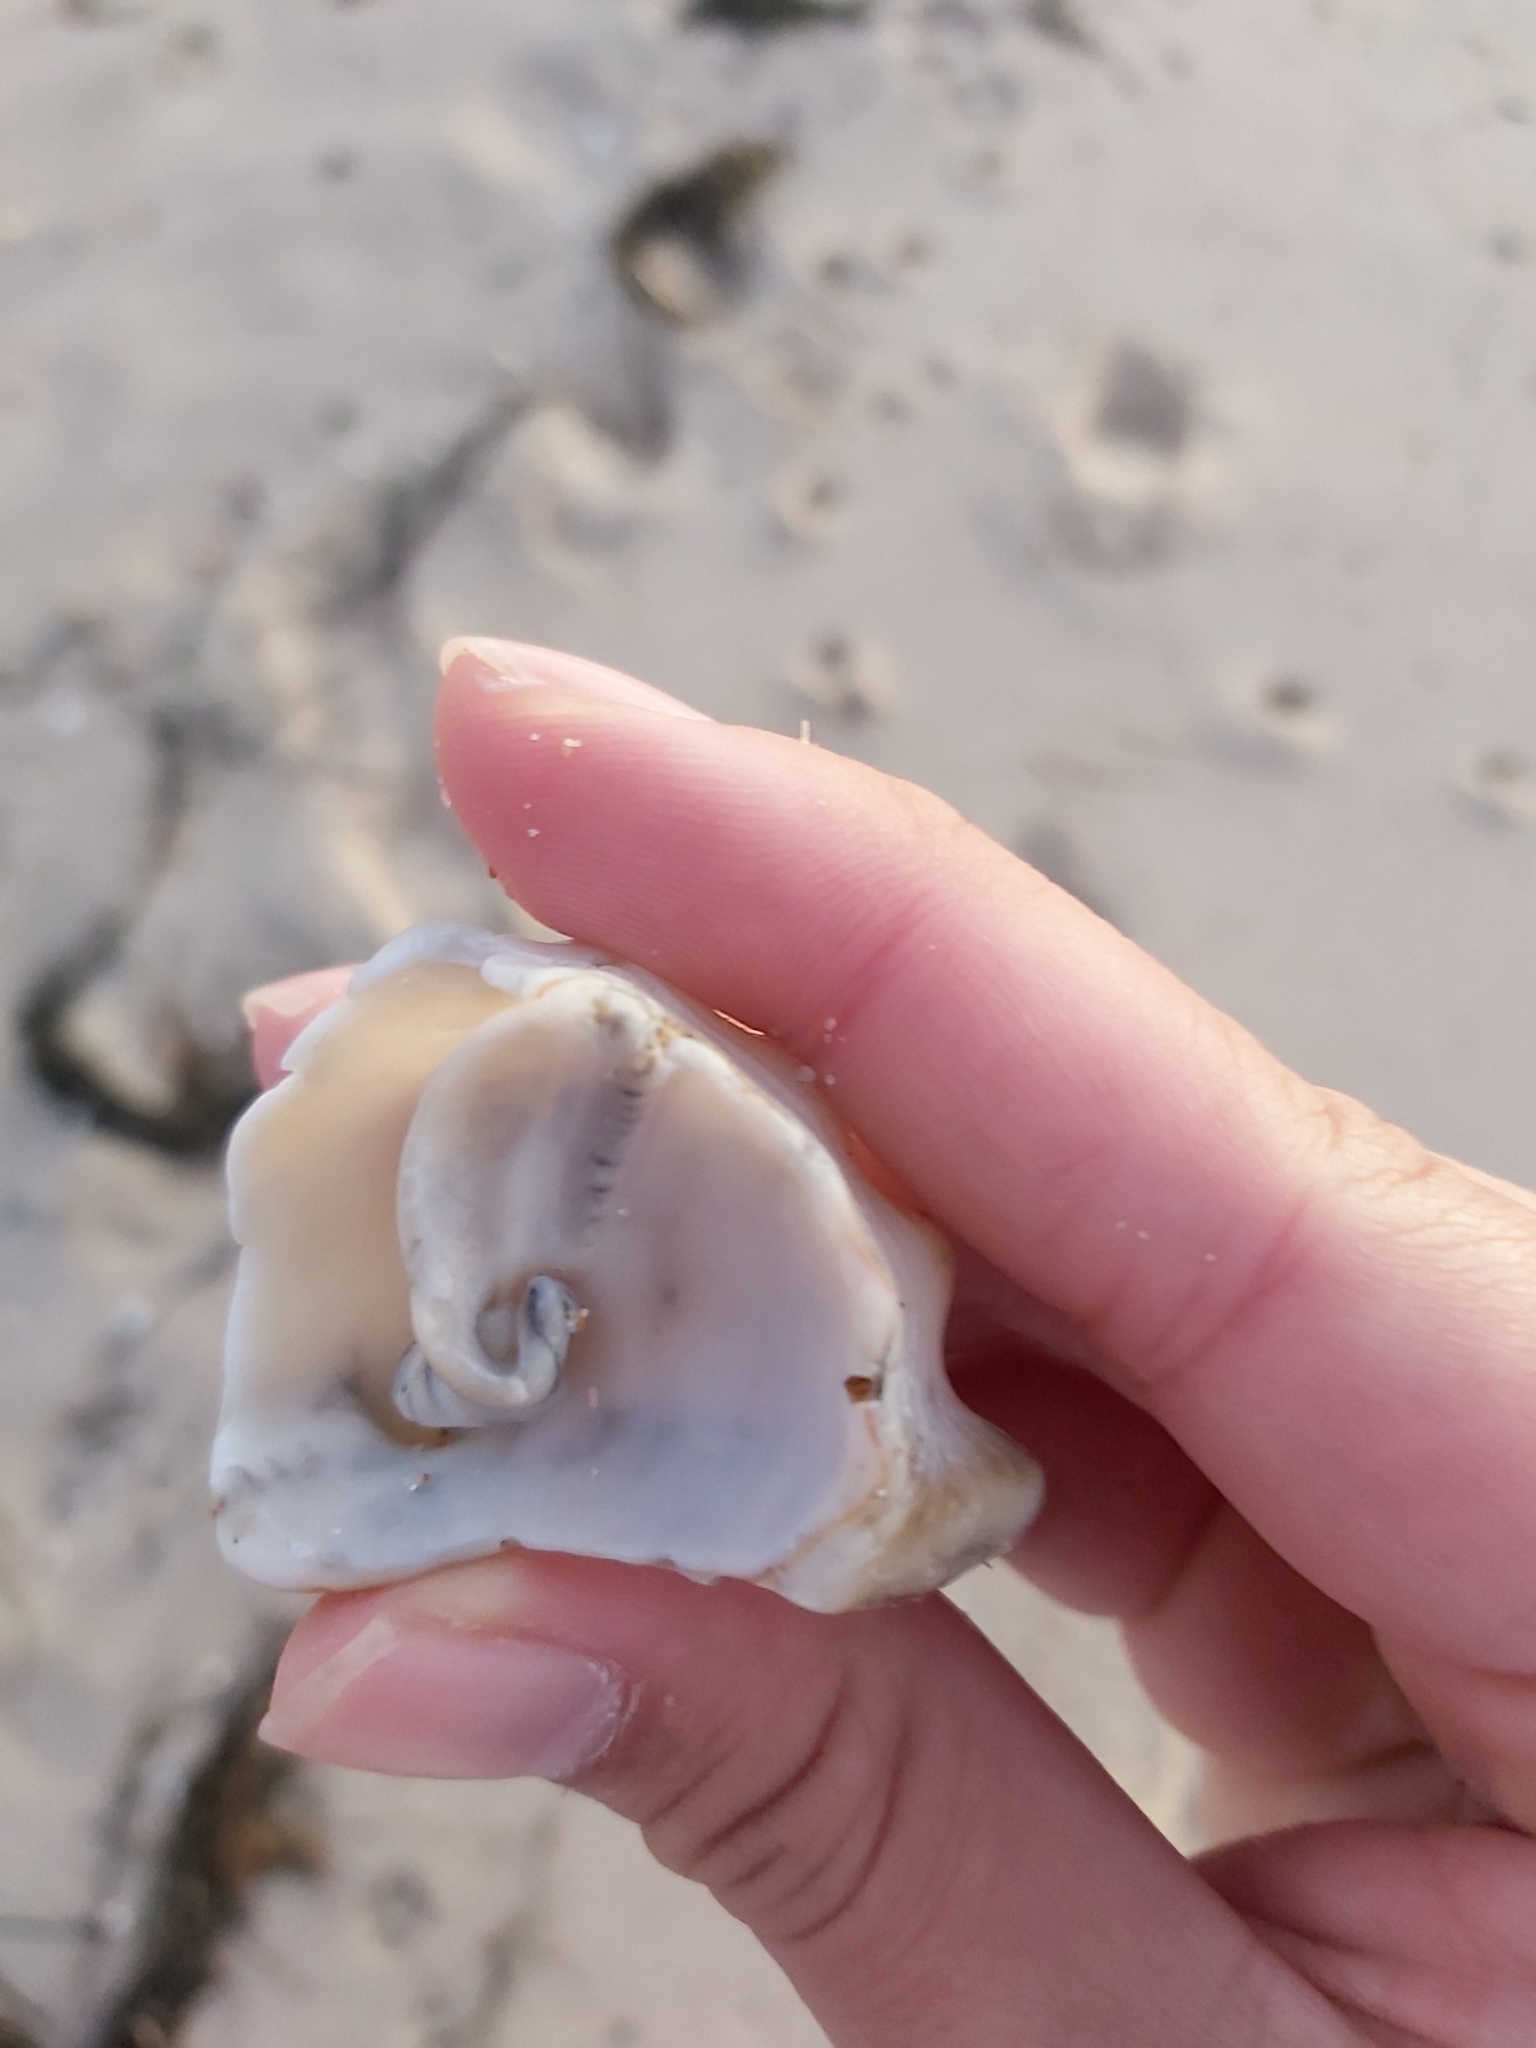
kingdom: Animalia
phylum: Mollusca
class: Gastropoda
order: Littorinimorpha
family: Charoniidae
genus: Charonia
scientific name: Charonia lampas
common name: Knobbed triton
